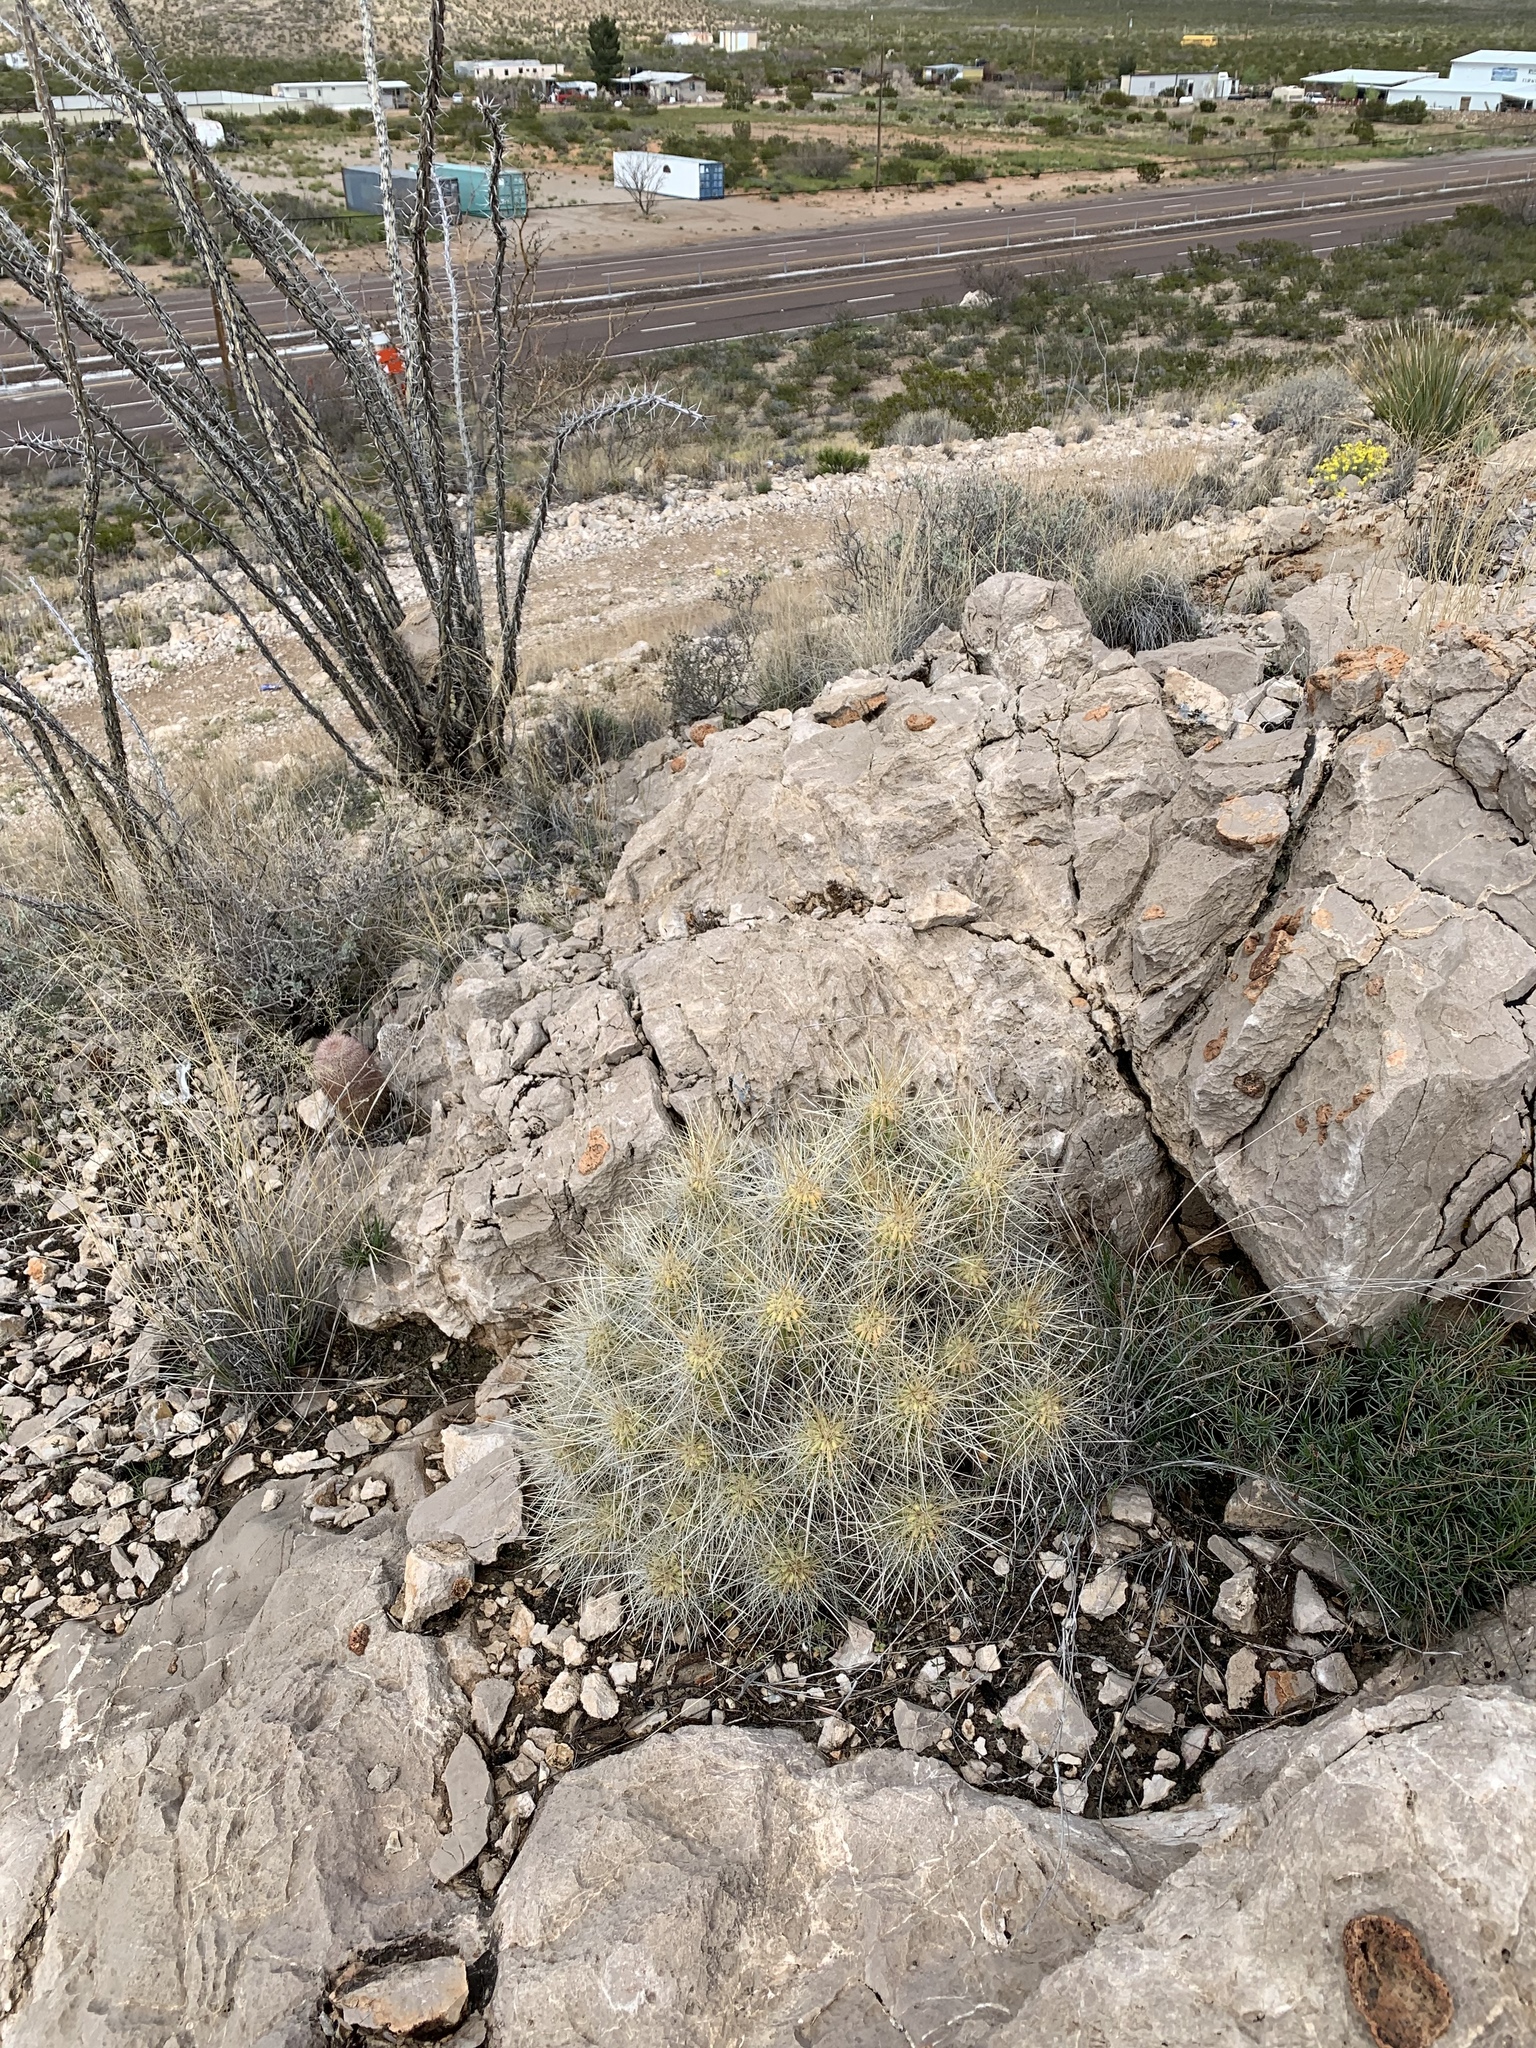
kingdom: Plantae
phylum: Tracheophyta
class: Magnoliopsida
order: Caryophyllales
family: Cactaceae
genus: Echinocereus
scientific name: Echinocereus stramineus
